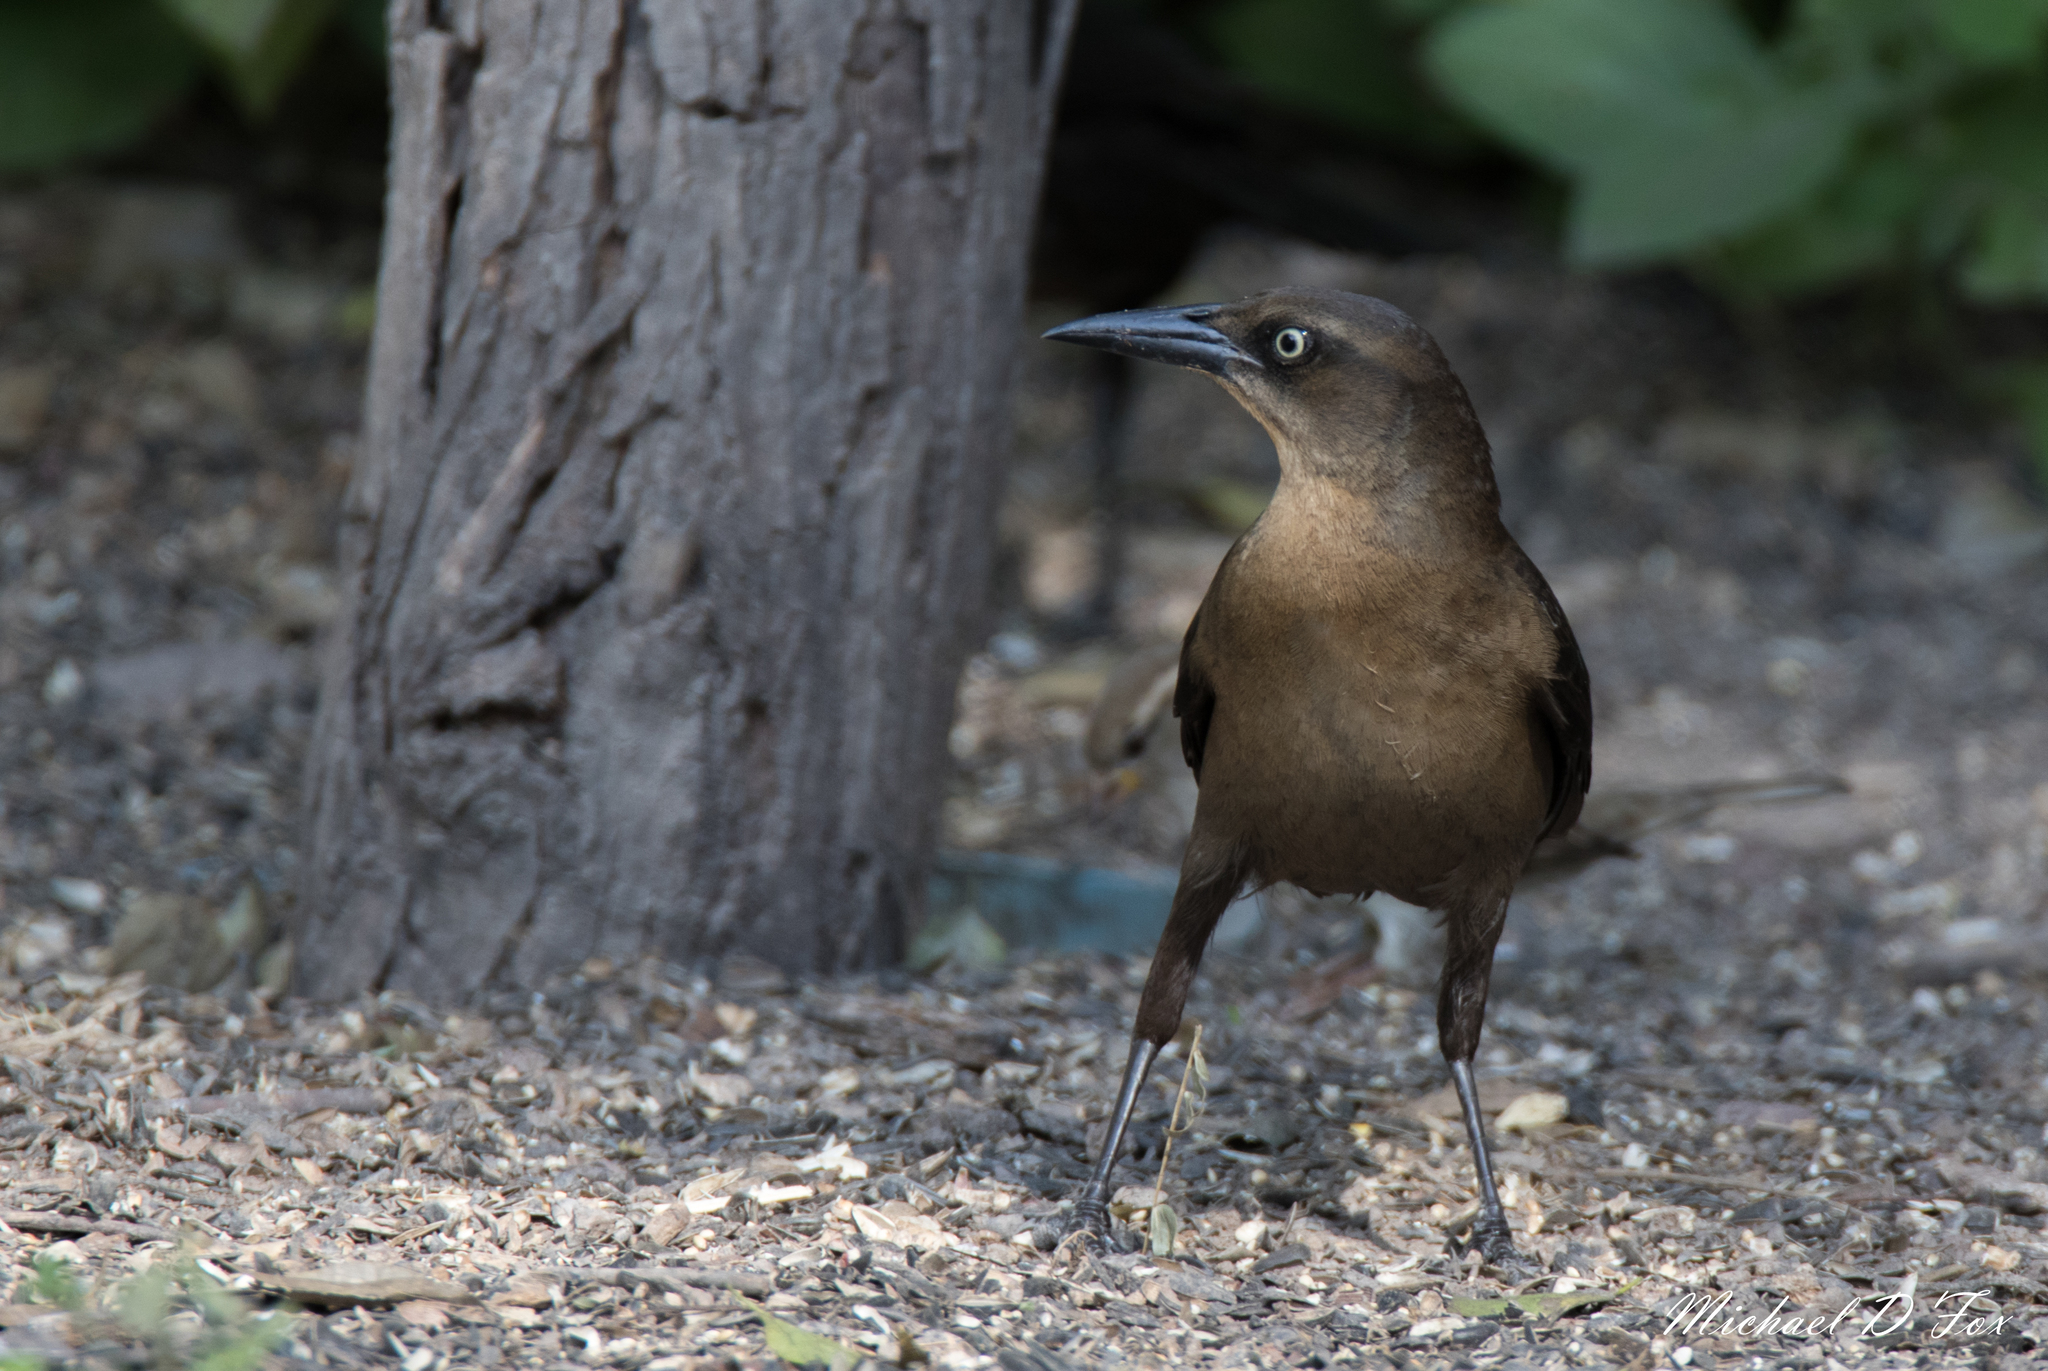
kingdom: Animalia
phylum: Chordata
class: Aves
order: Passeriformes
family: Icteridae
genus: Quiscalus
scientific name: Quiscalus mexicanus
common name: Great-tailed grackle
